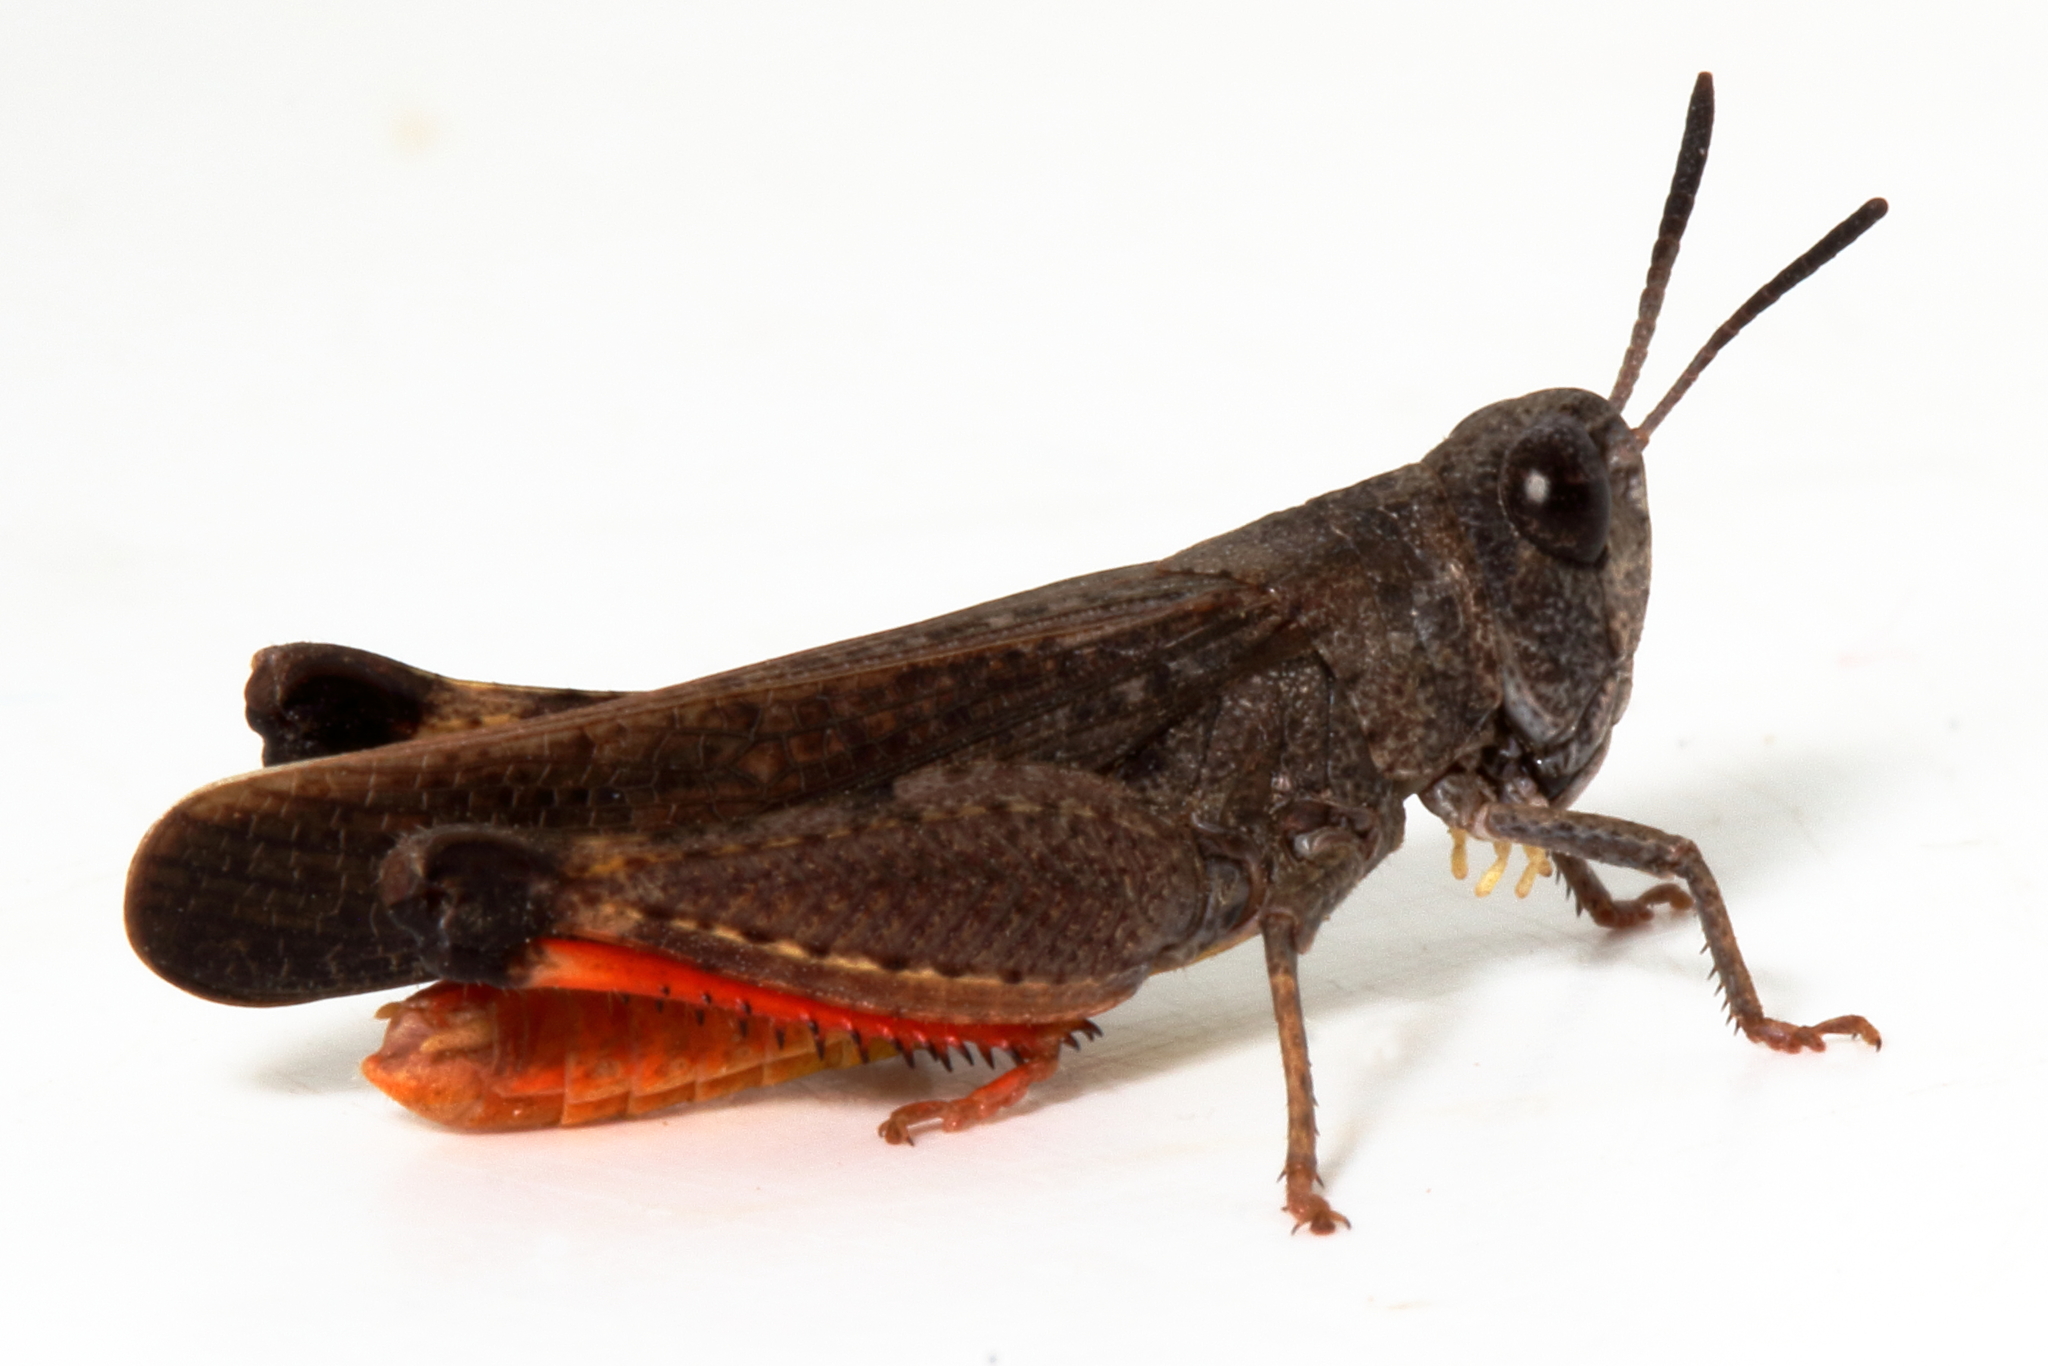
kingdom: Animalia
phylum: Arthropoda
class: Insecta
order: Orthoptera
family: Acrididae
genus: Cryptobothrus
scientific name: Cryptobothrus chrysophorus
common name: Golden bandwing
